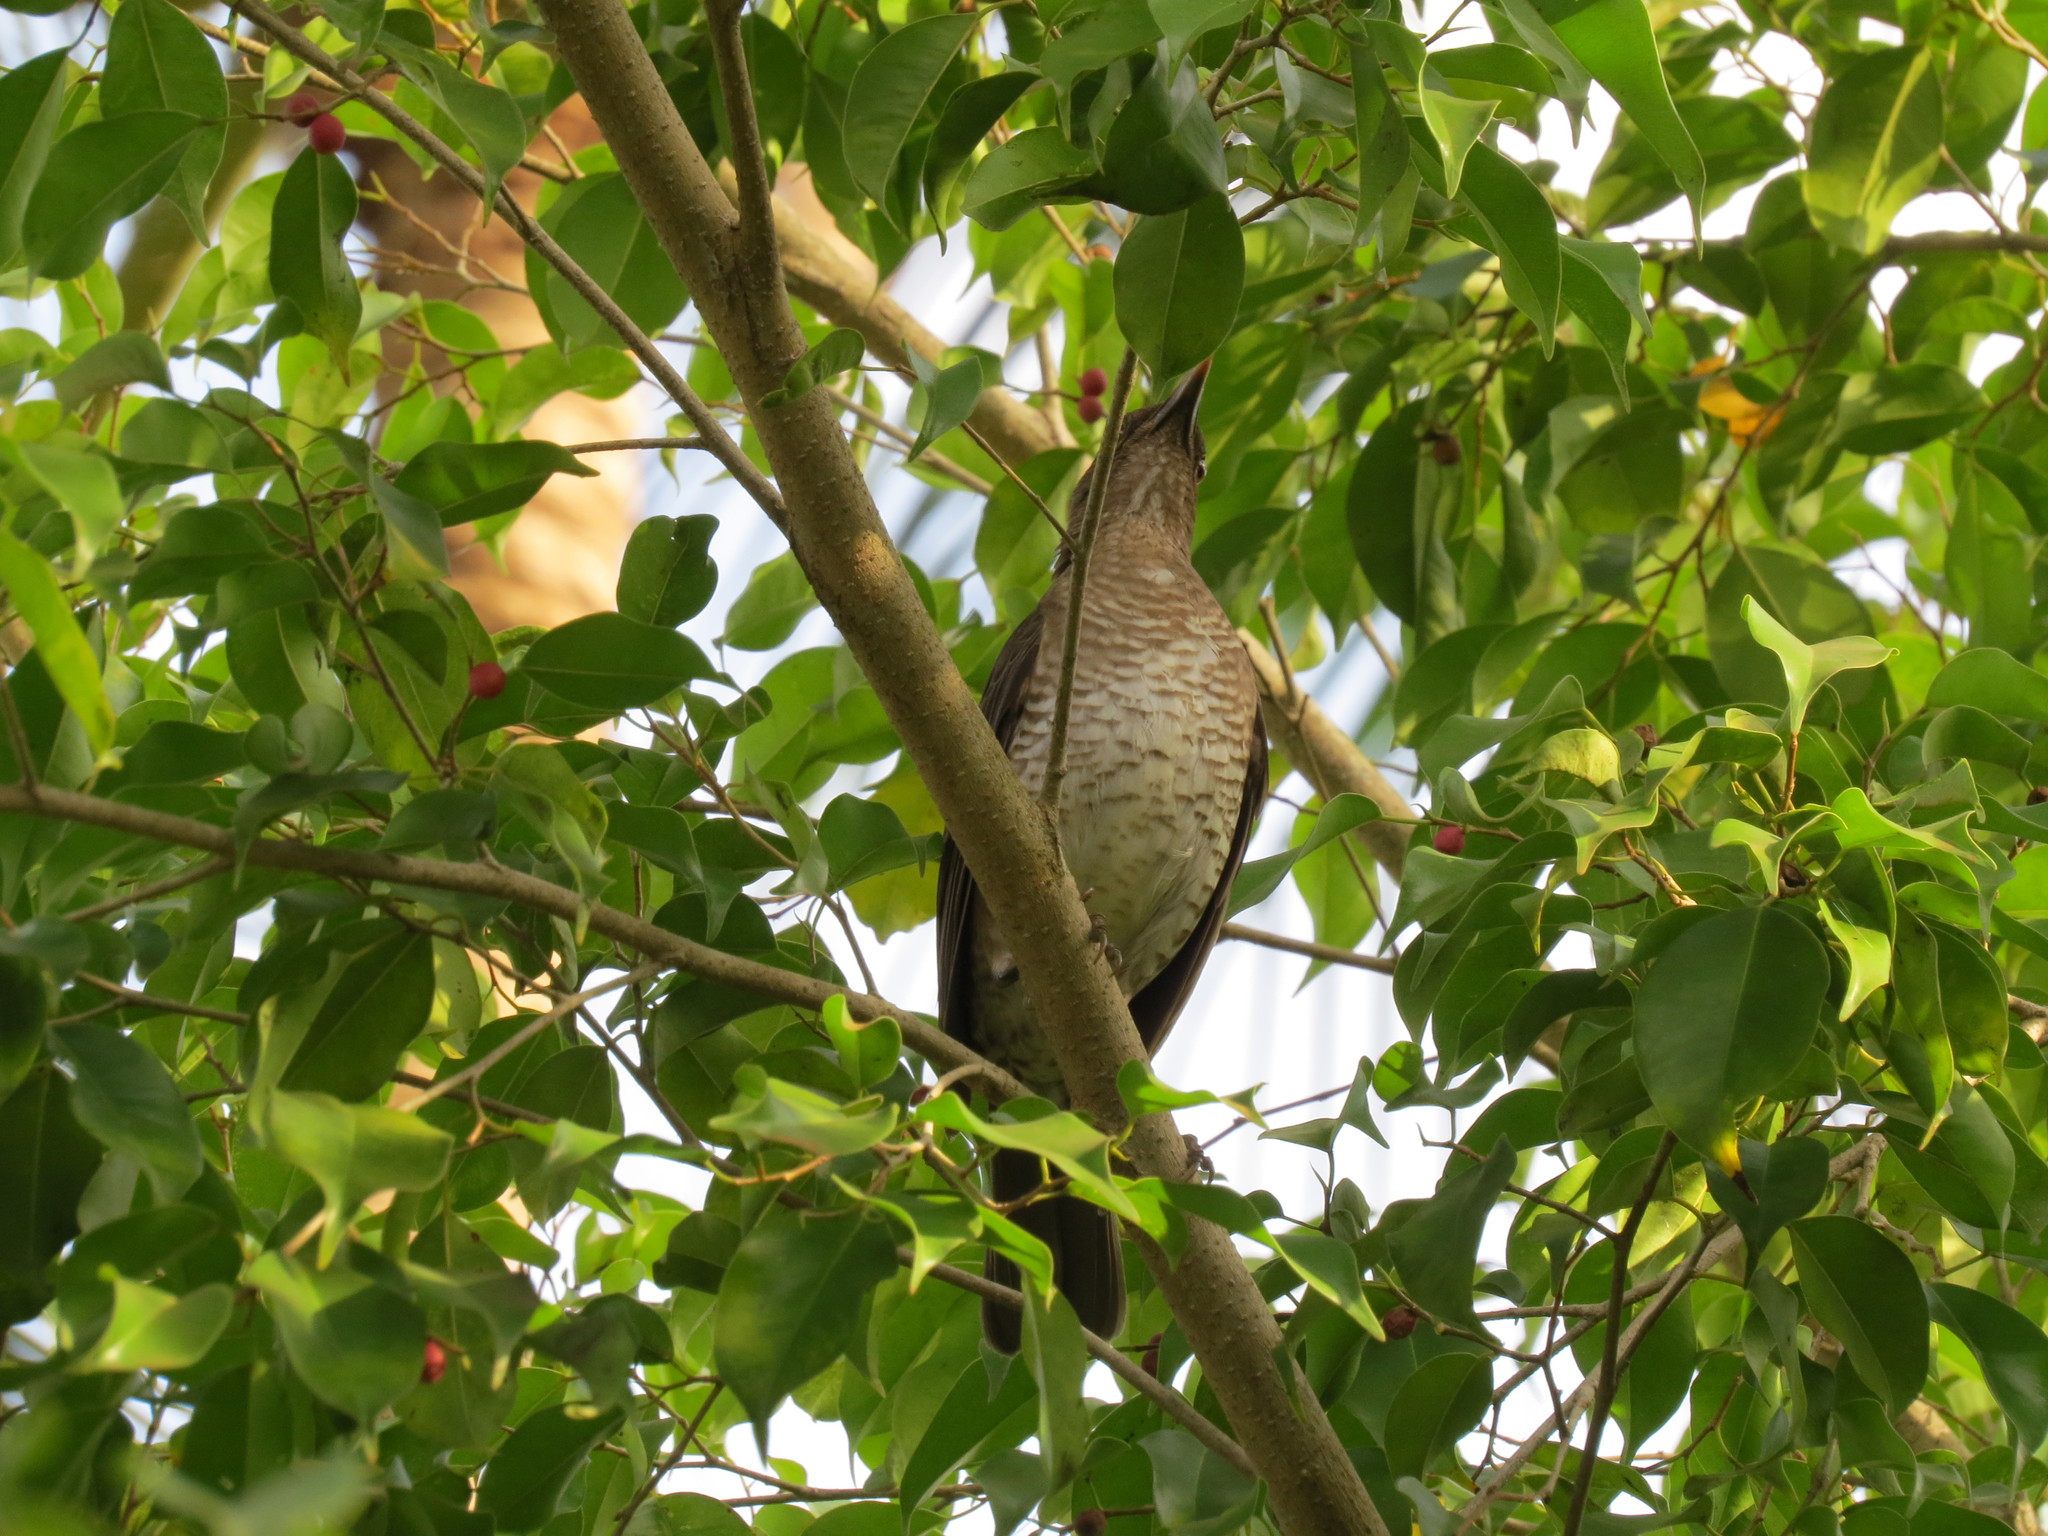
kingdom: Animalia
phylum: Chordata
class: Aves
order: Passeriformes
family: Turdidae
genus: Turdus
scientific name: Turdus olivaceofuscus
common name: Sao tome thrush
